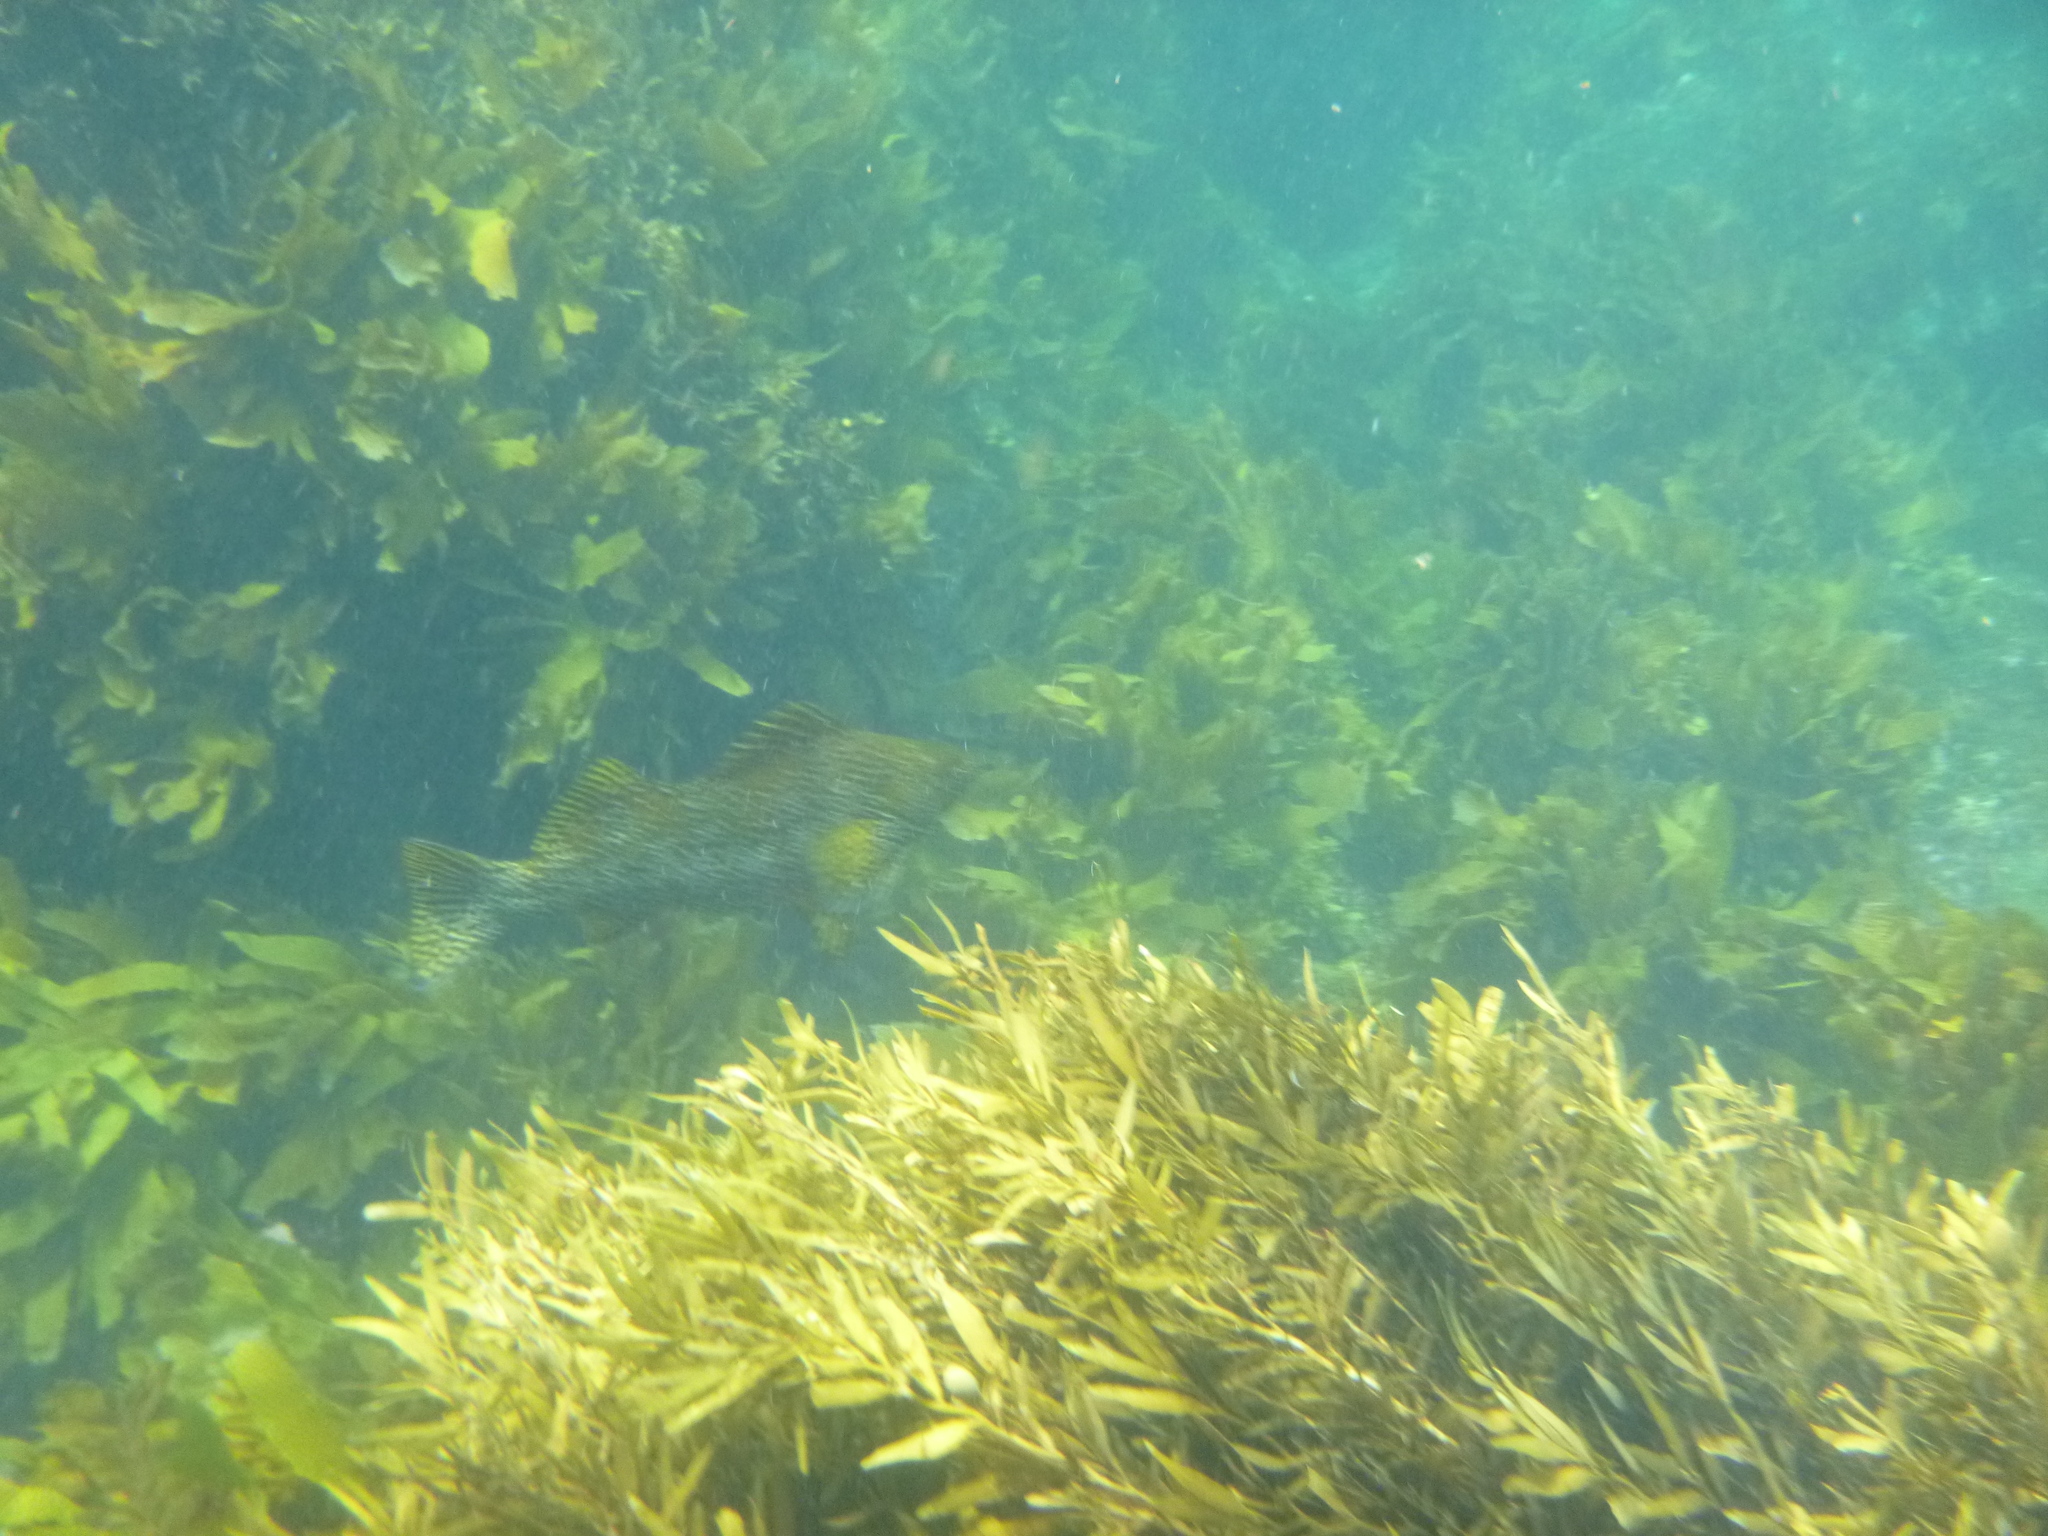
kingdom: Animalia
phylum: Chordata
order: Perciformes
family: Aplodactylidae
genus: Aplodactylus
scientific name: Aplodactylus arctidens
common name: Marblefish
